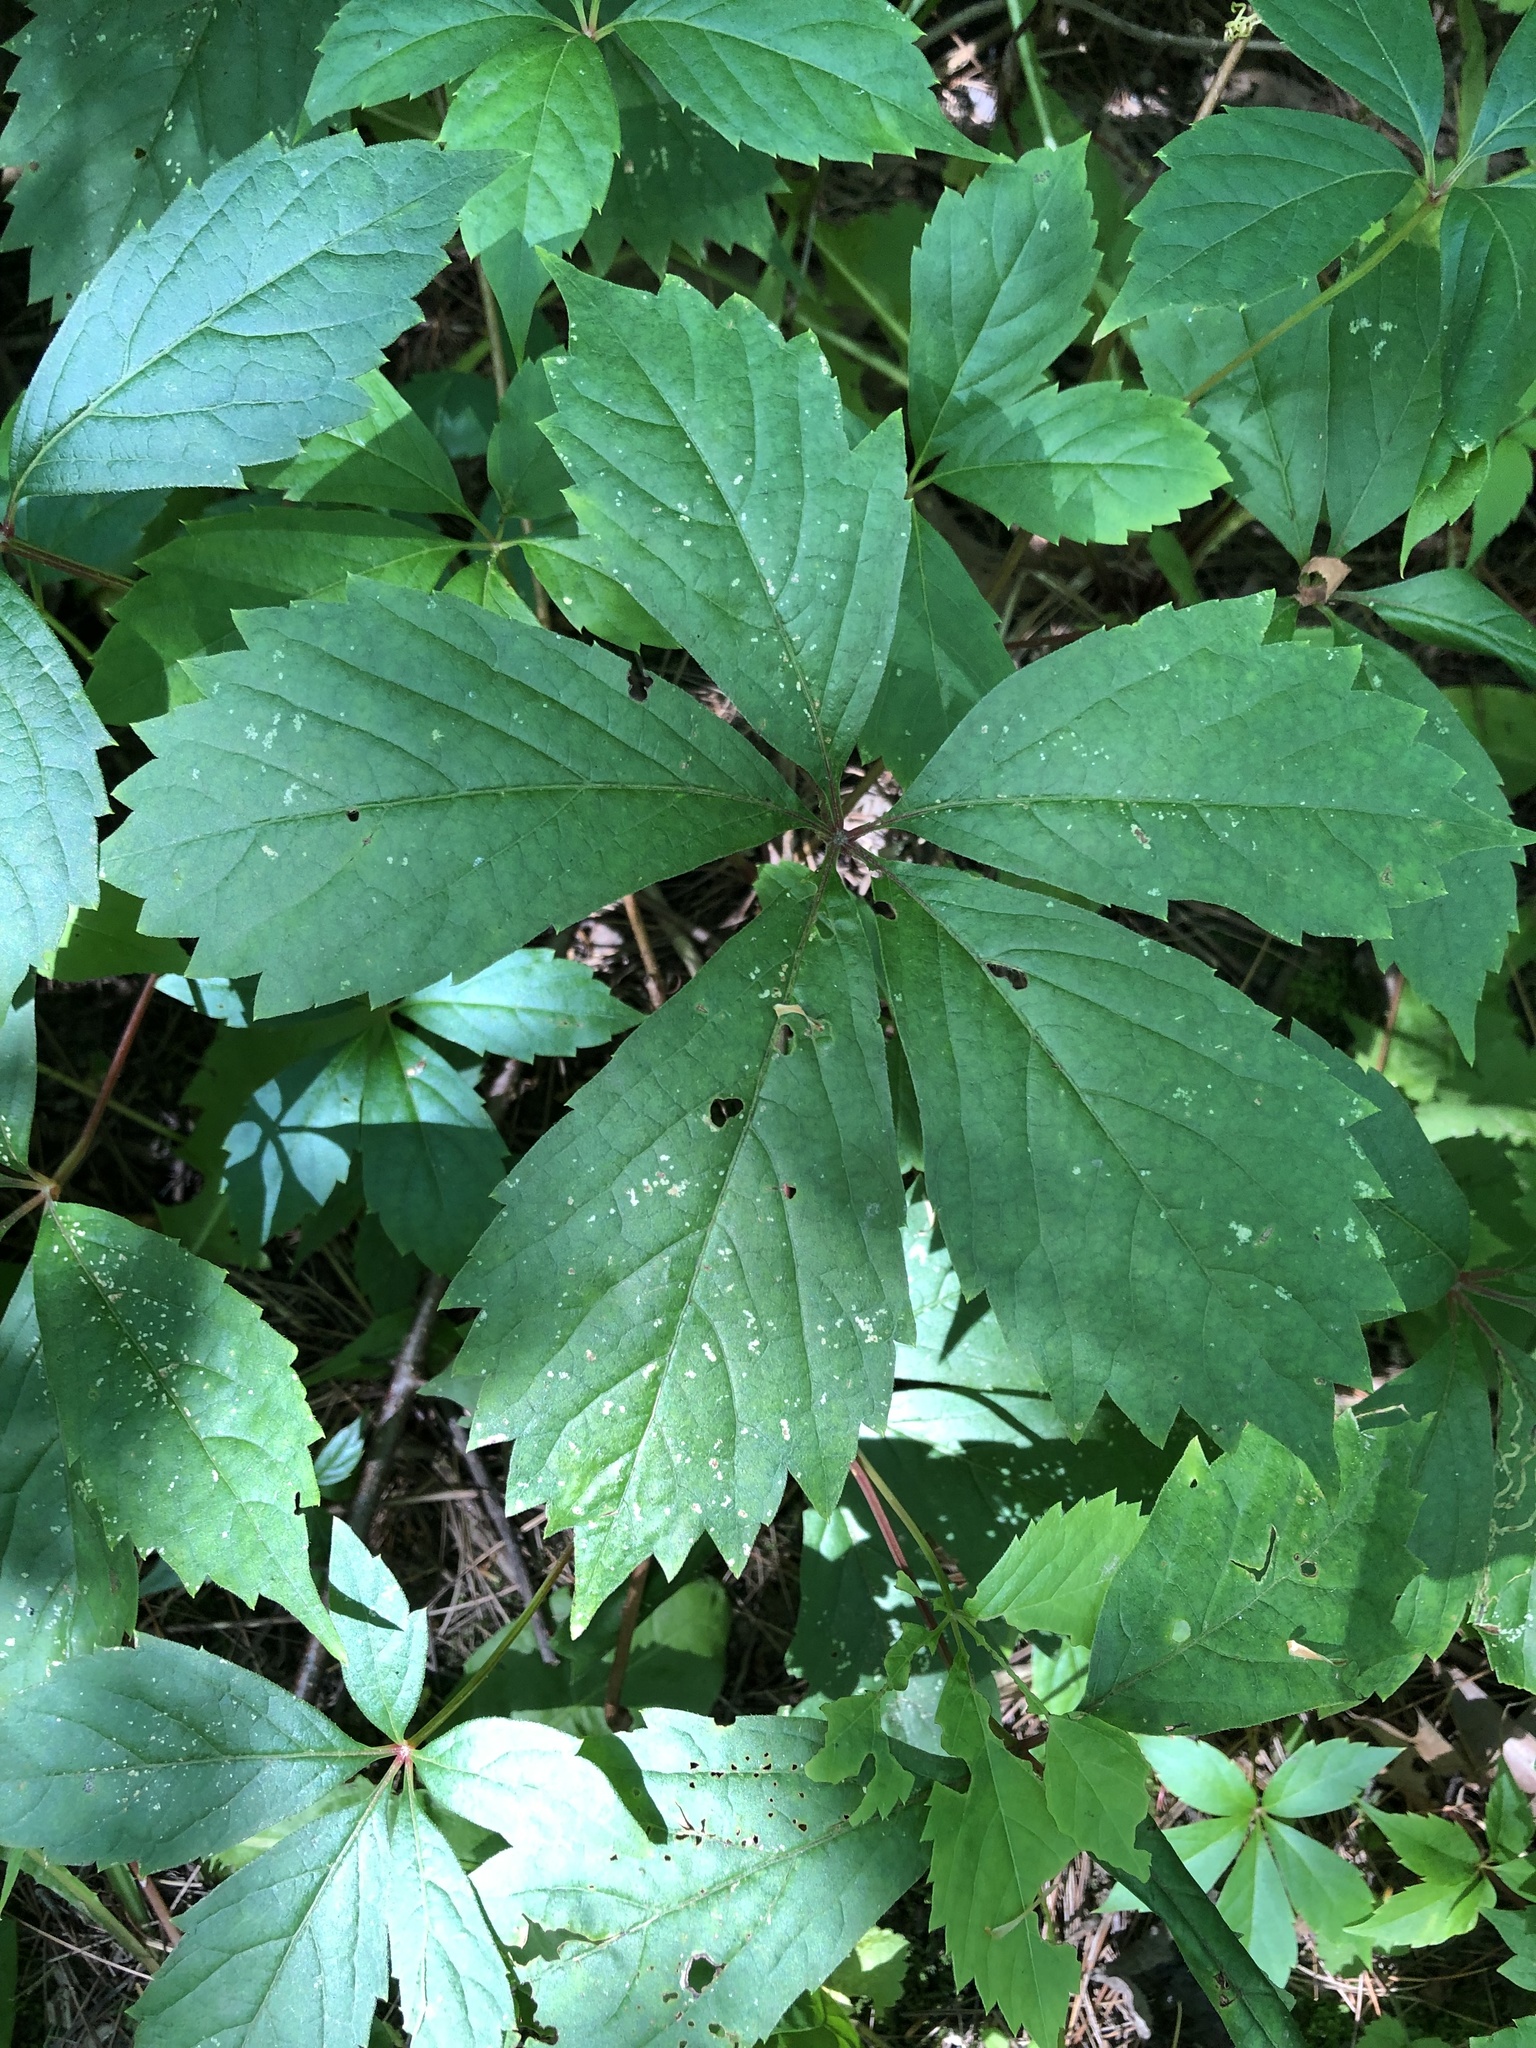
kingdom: Plantae
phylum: Tracheophyta
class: Magnoliopsida
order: Vitales
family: Vitaceae
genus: Parthenocissus
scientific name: Parthenocissus inserta
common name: False virginia-creeper
